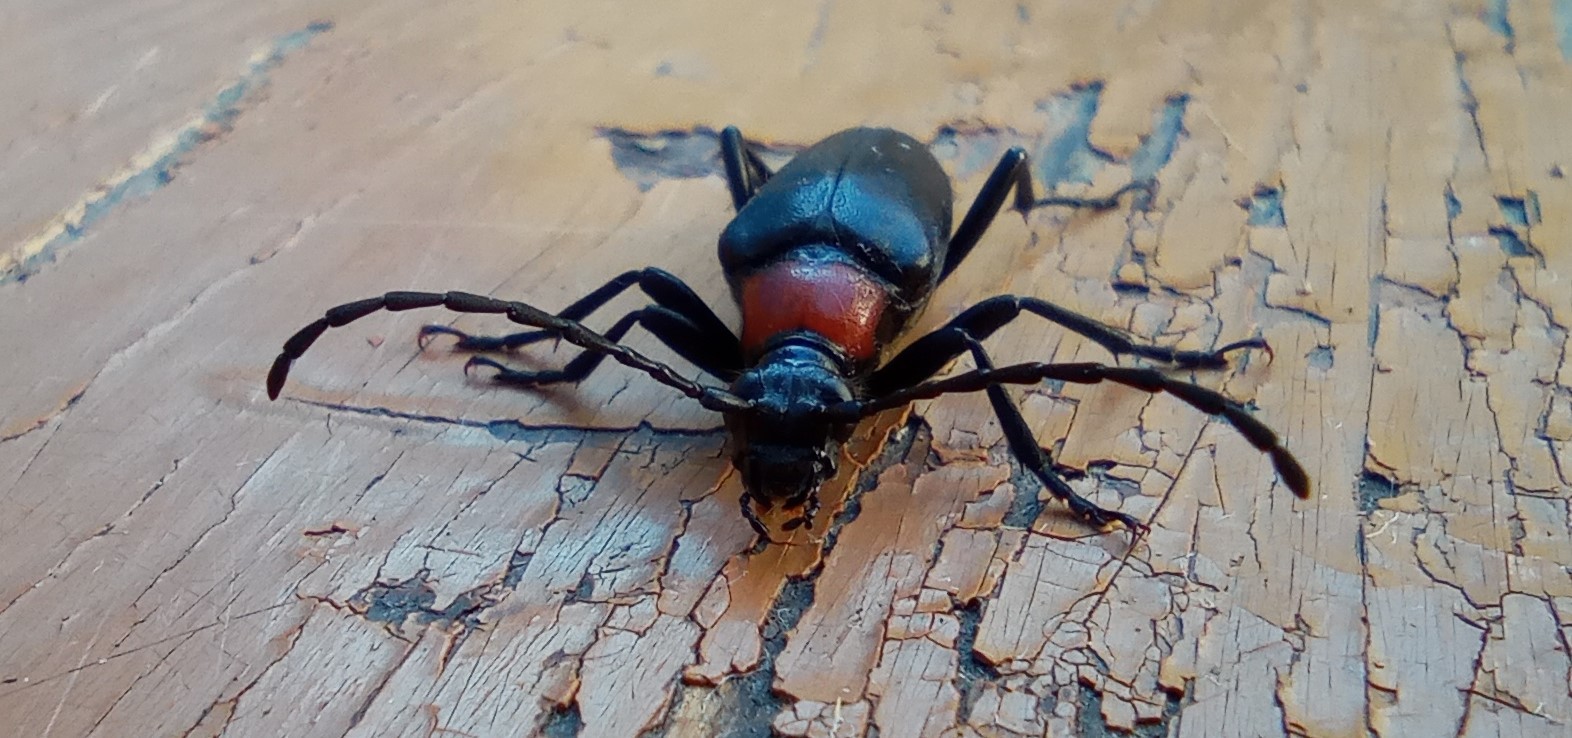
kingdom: Animalia
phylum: Arthropoda
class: Insecta
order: Coleoptera
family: Cerambycidae
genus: Leptura
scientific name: Leptura thoracica
